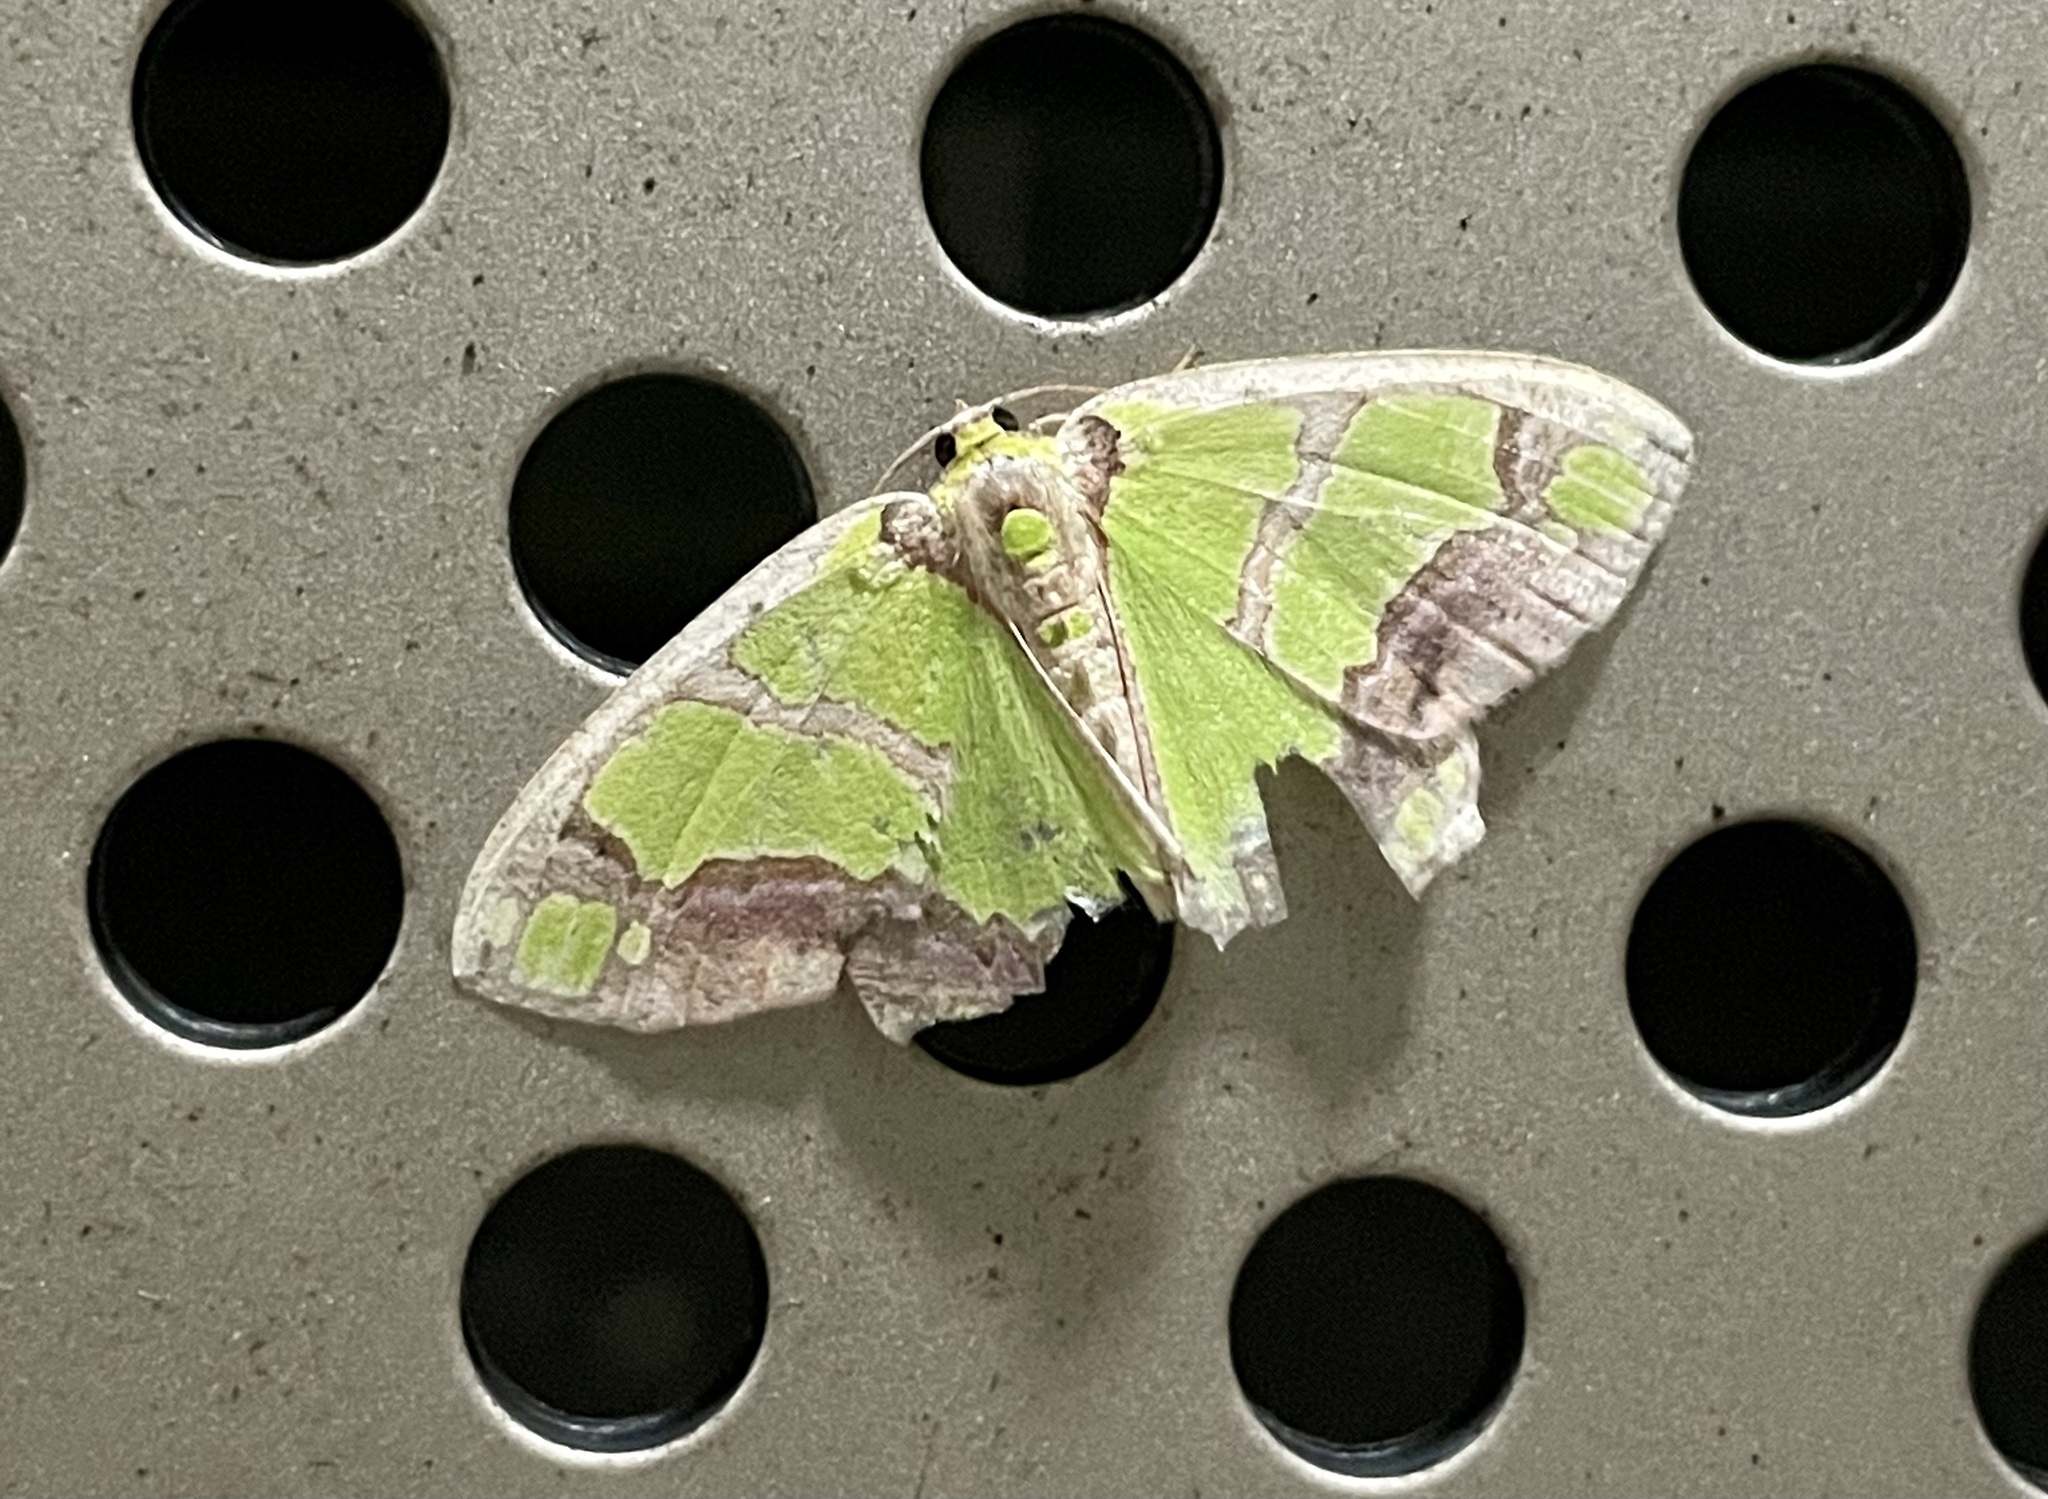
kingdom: Animalia
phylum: Arthropoda
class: Insecta
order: Lepidoptera
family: Geometridae
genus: Agathia
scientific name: Agathia visenda
